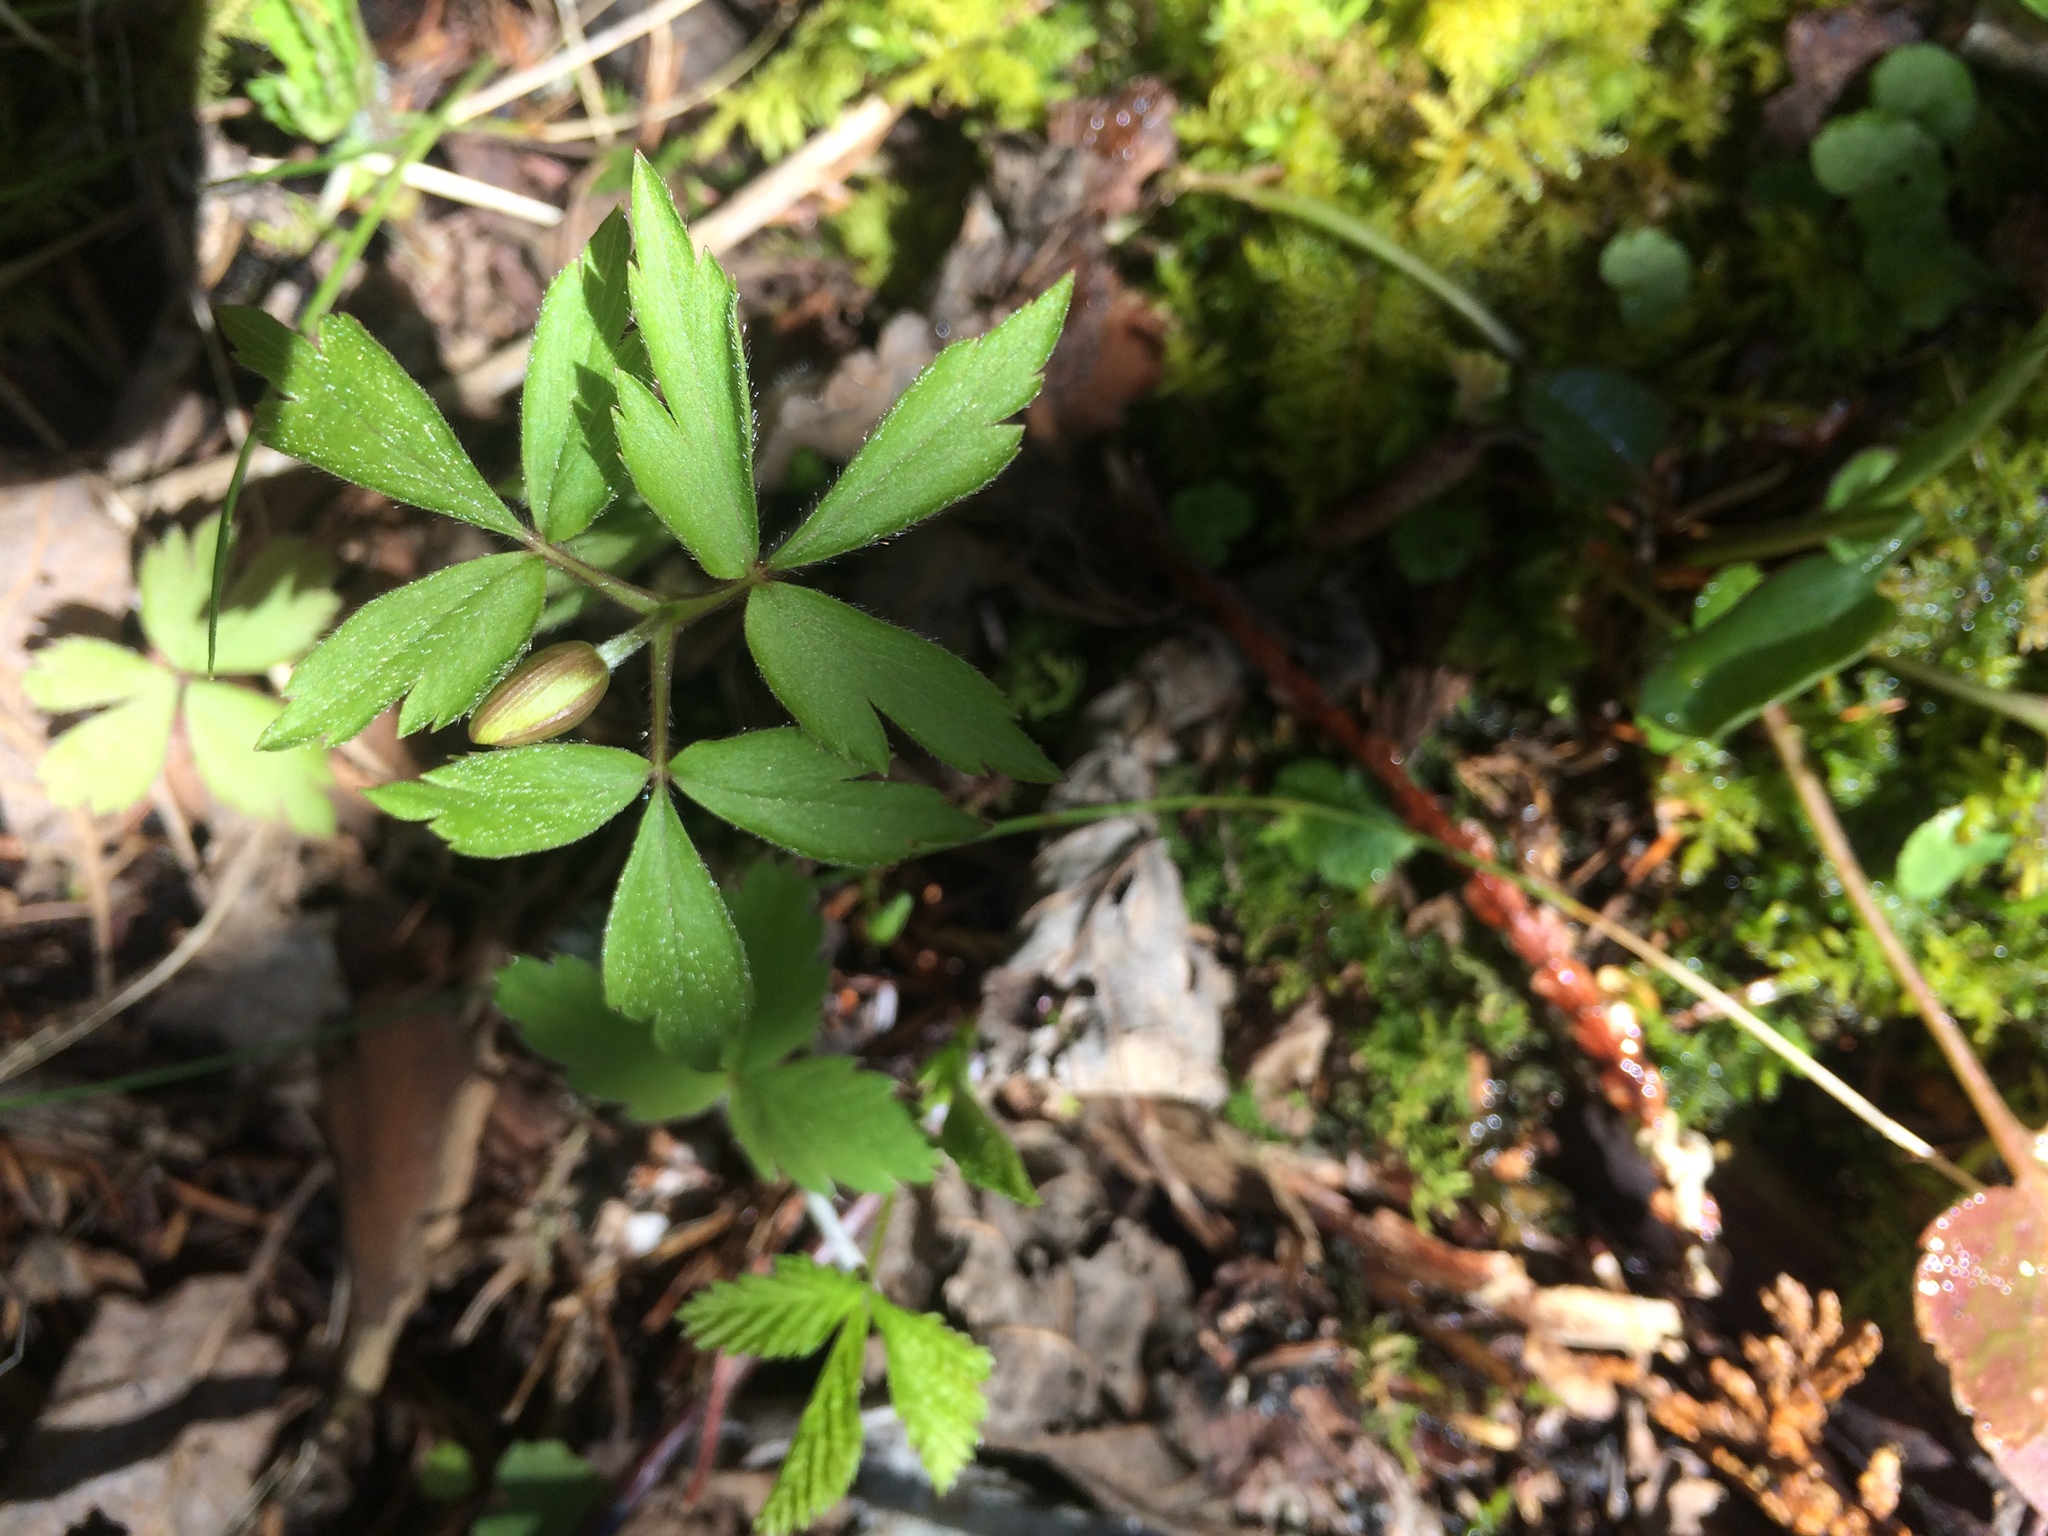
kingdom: Plantae
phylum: Tracheophyta
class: Magnoliopsida
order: Ranunculales
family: Ranunculaceae
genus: Anemone
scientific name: Anemone quinquefolia
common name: Wood anemone
